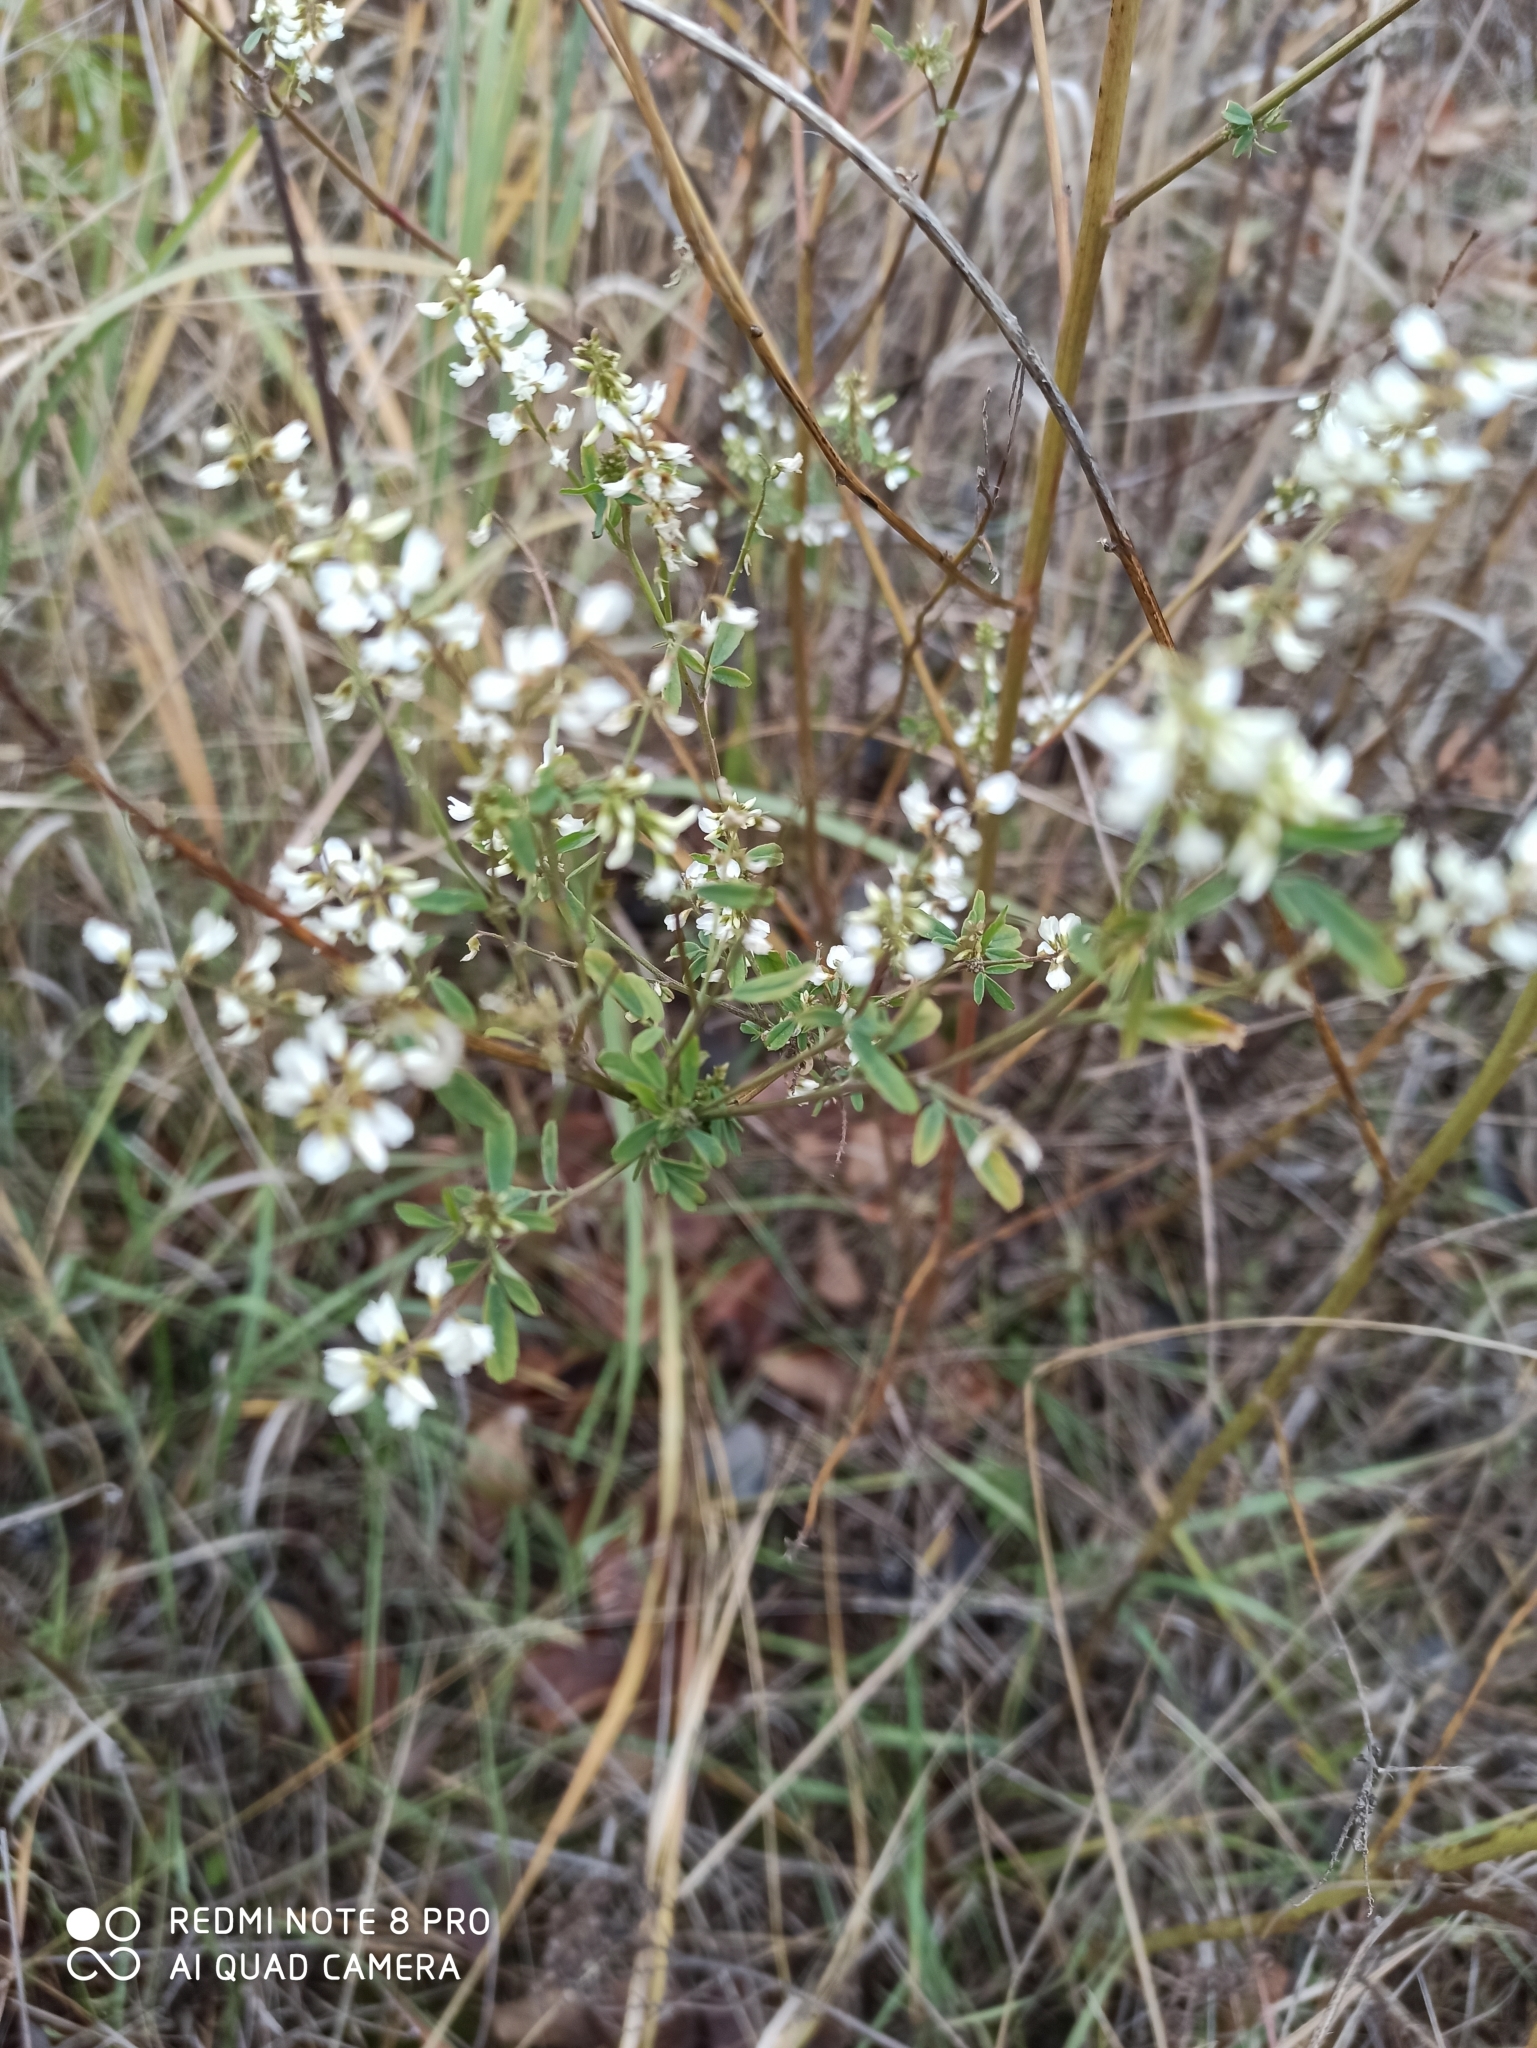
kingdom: Plantae
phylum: Tracheophyta
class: Magnoliopsida
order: Fabales
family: Fabaceae
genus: Melilotus
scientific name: Melilotus albus
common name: White melilot
